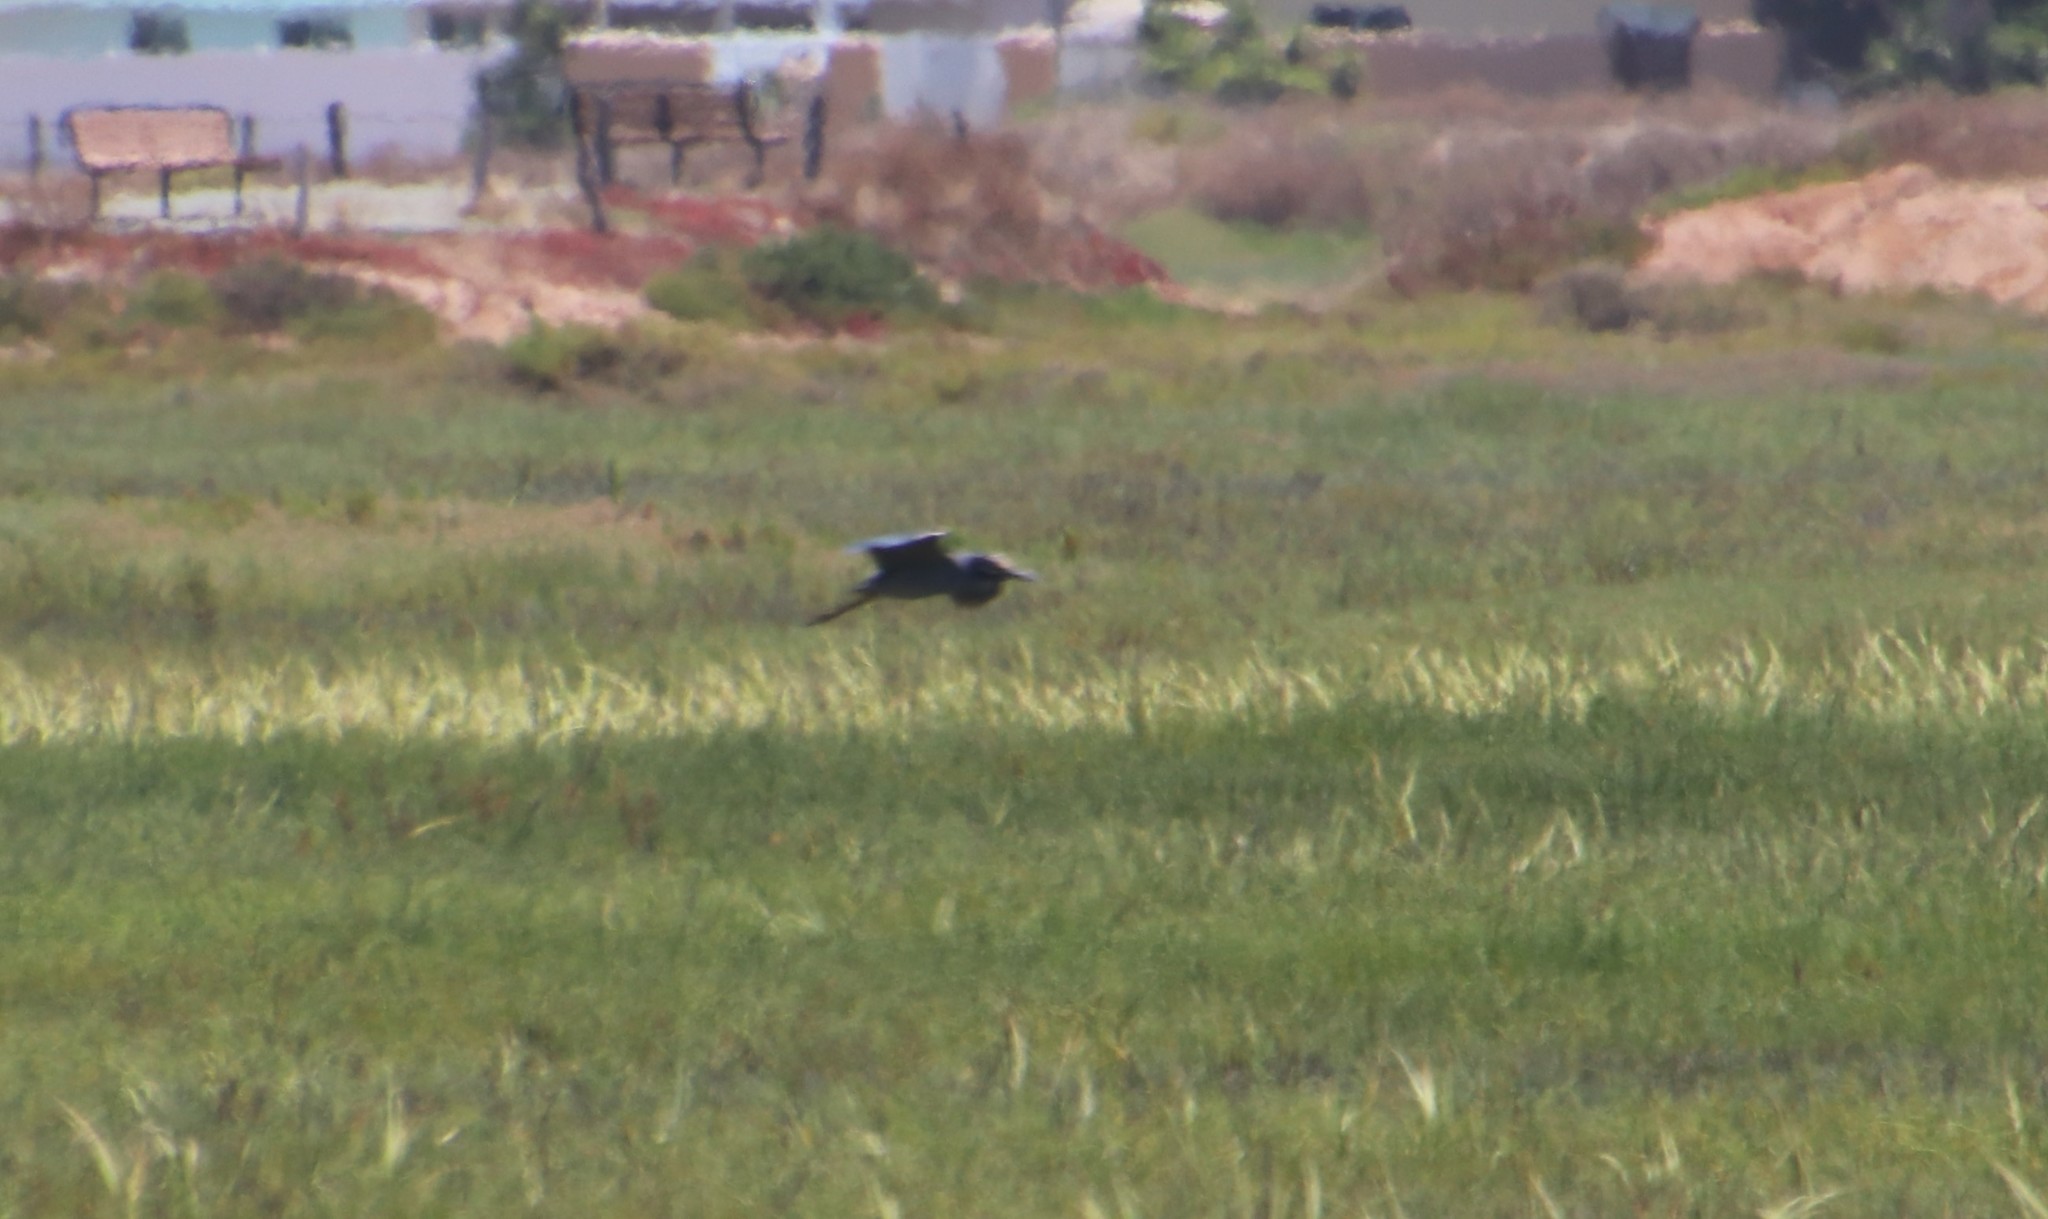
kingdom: Animalia
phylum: Chordata
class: Aves
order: Pelecaniformes
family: Ardeidae
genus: Nyctanassa
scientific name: Nyctanassa violacea
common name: Yellow-crowned night heron
